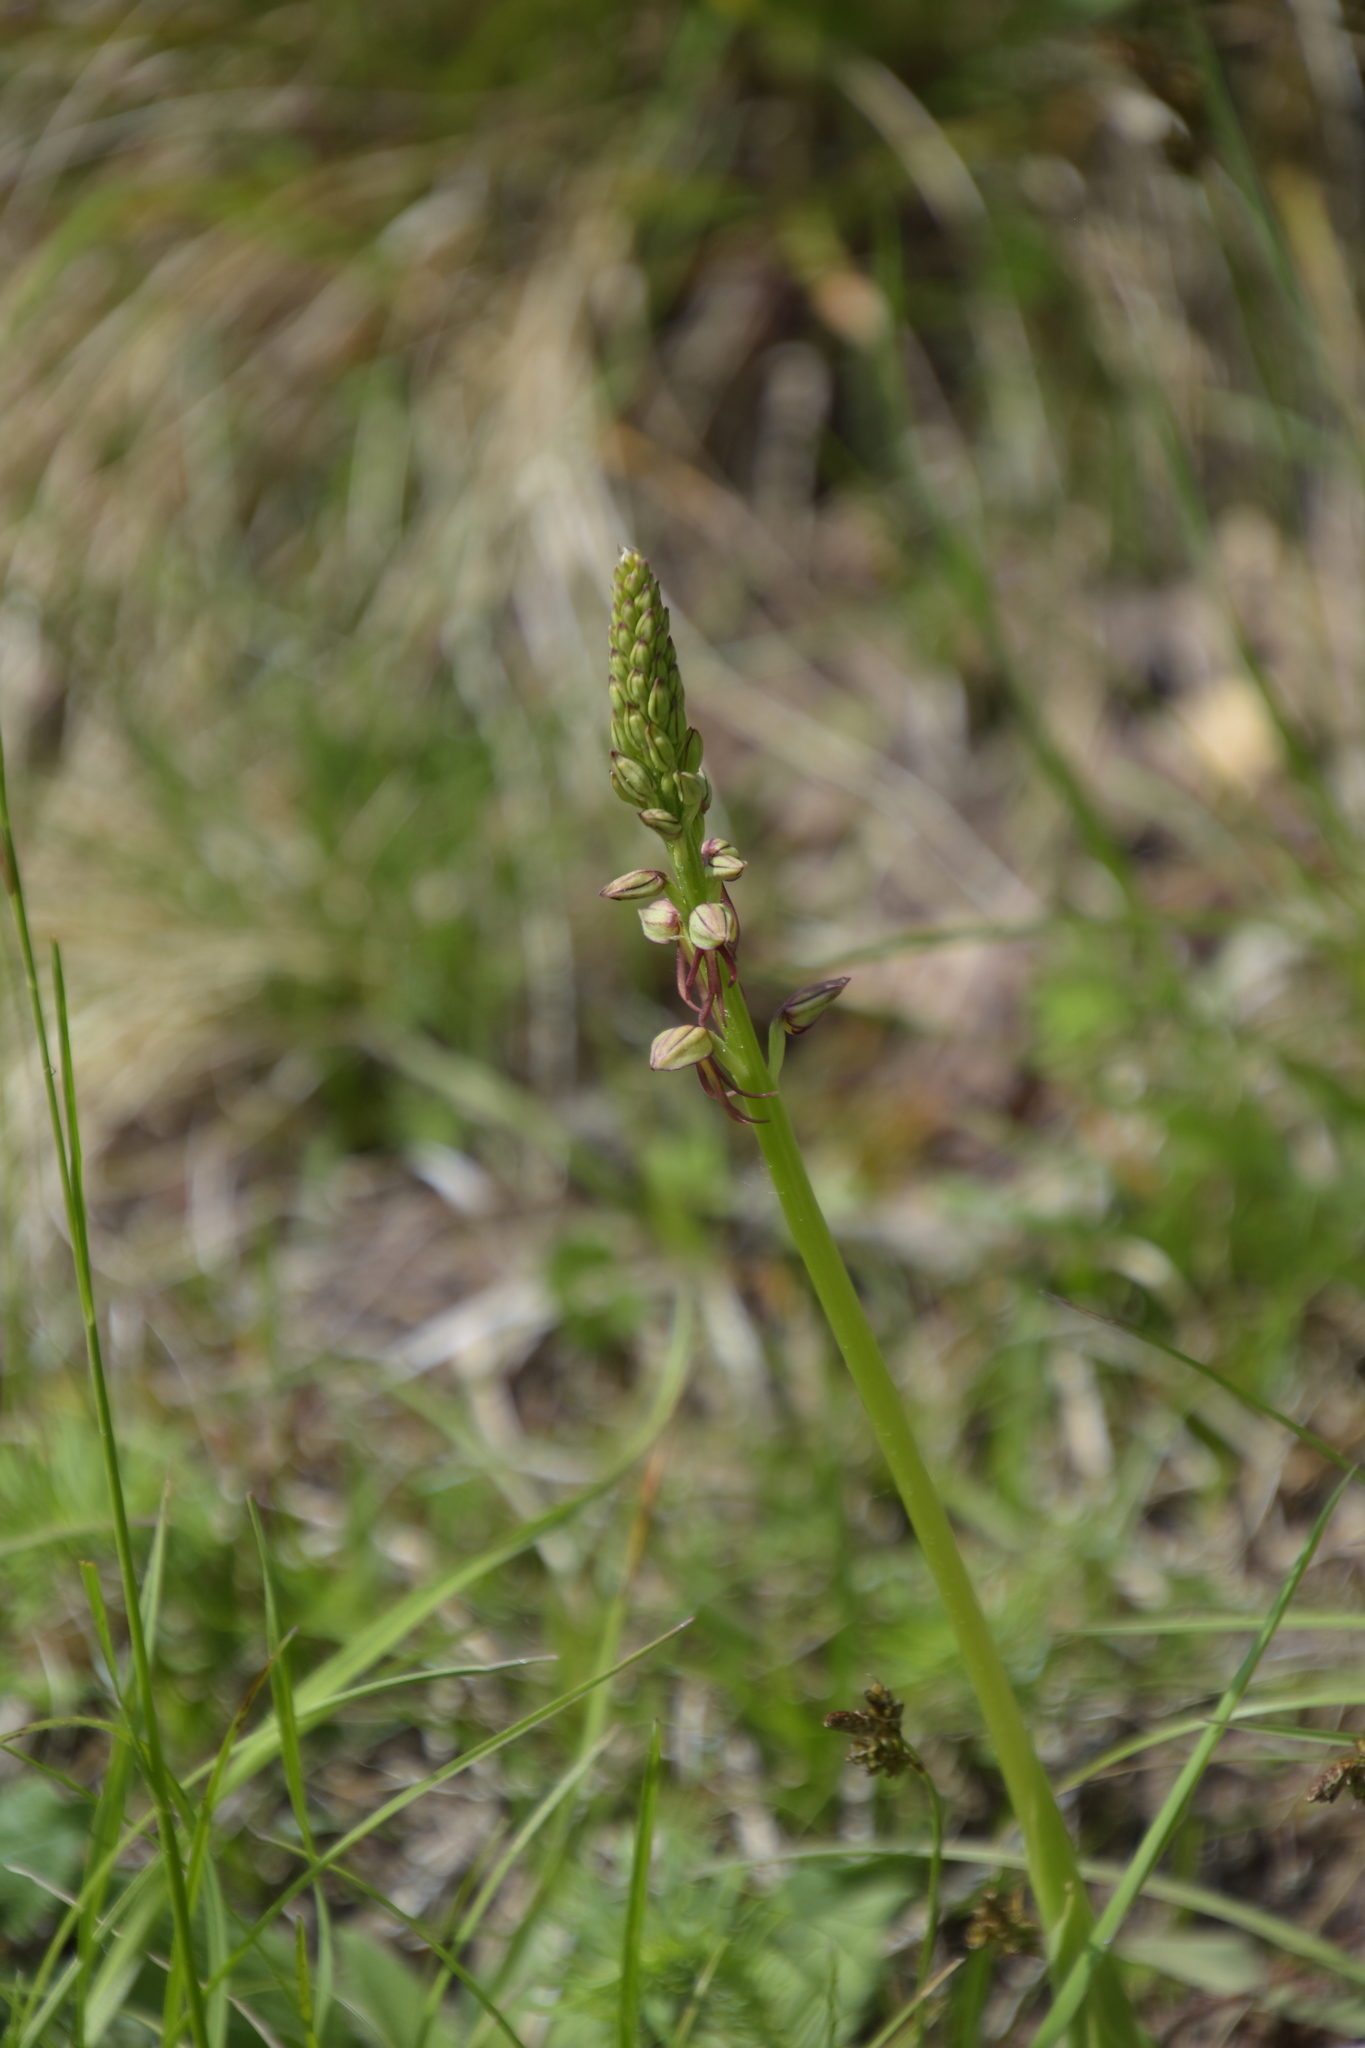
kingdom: Plantae
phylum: Tracheophyta
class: Liliopsida
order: Asparagales
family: Orchidaceae
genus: Orchis
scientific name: Orchis anthropophora
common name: Man orchid
